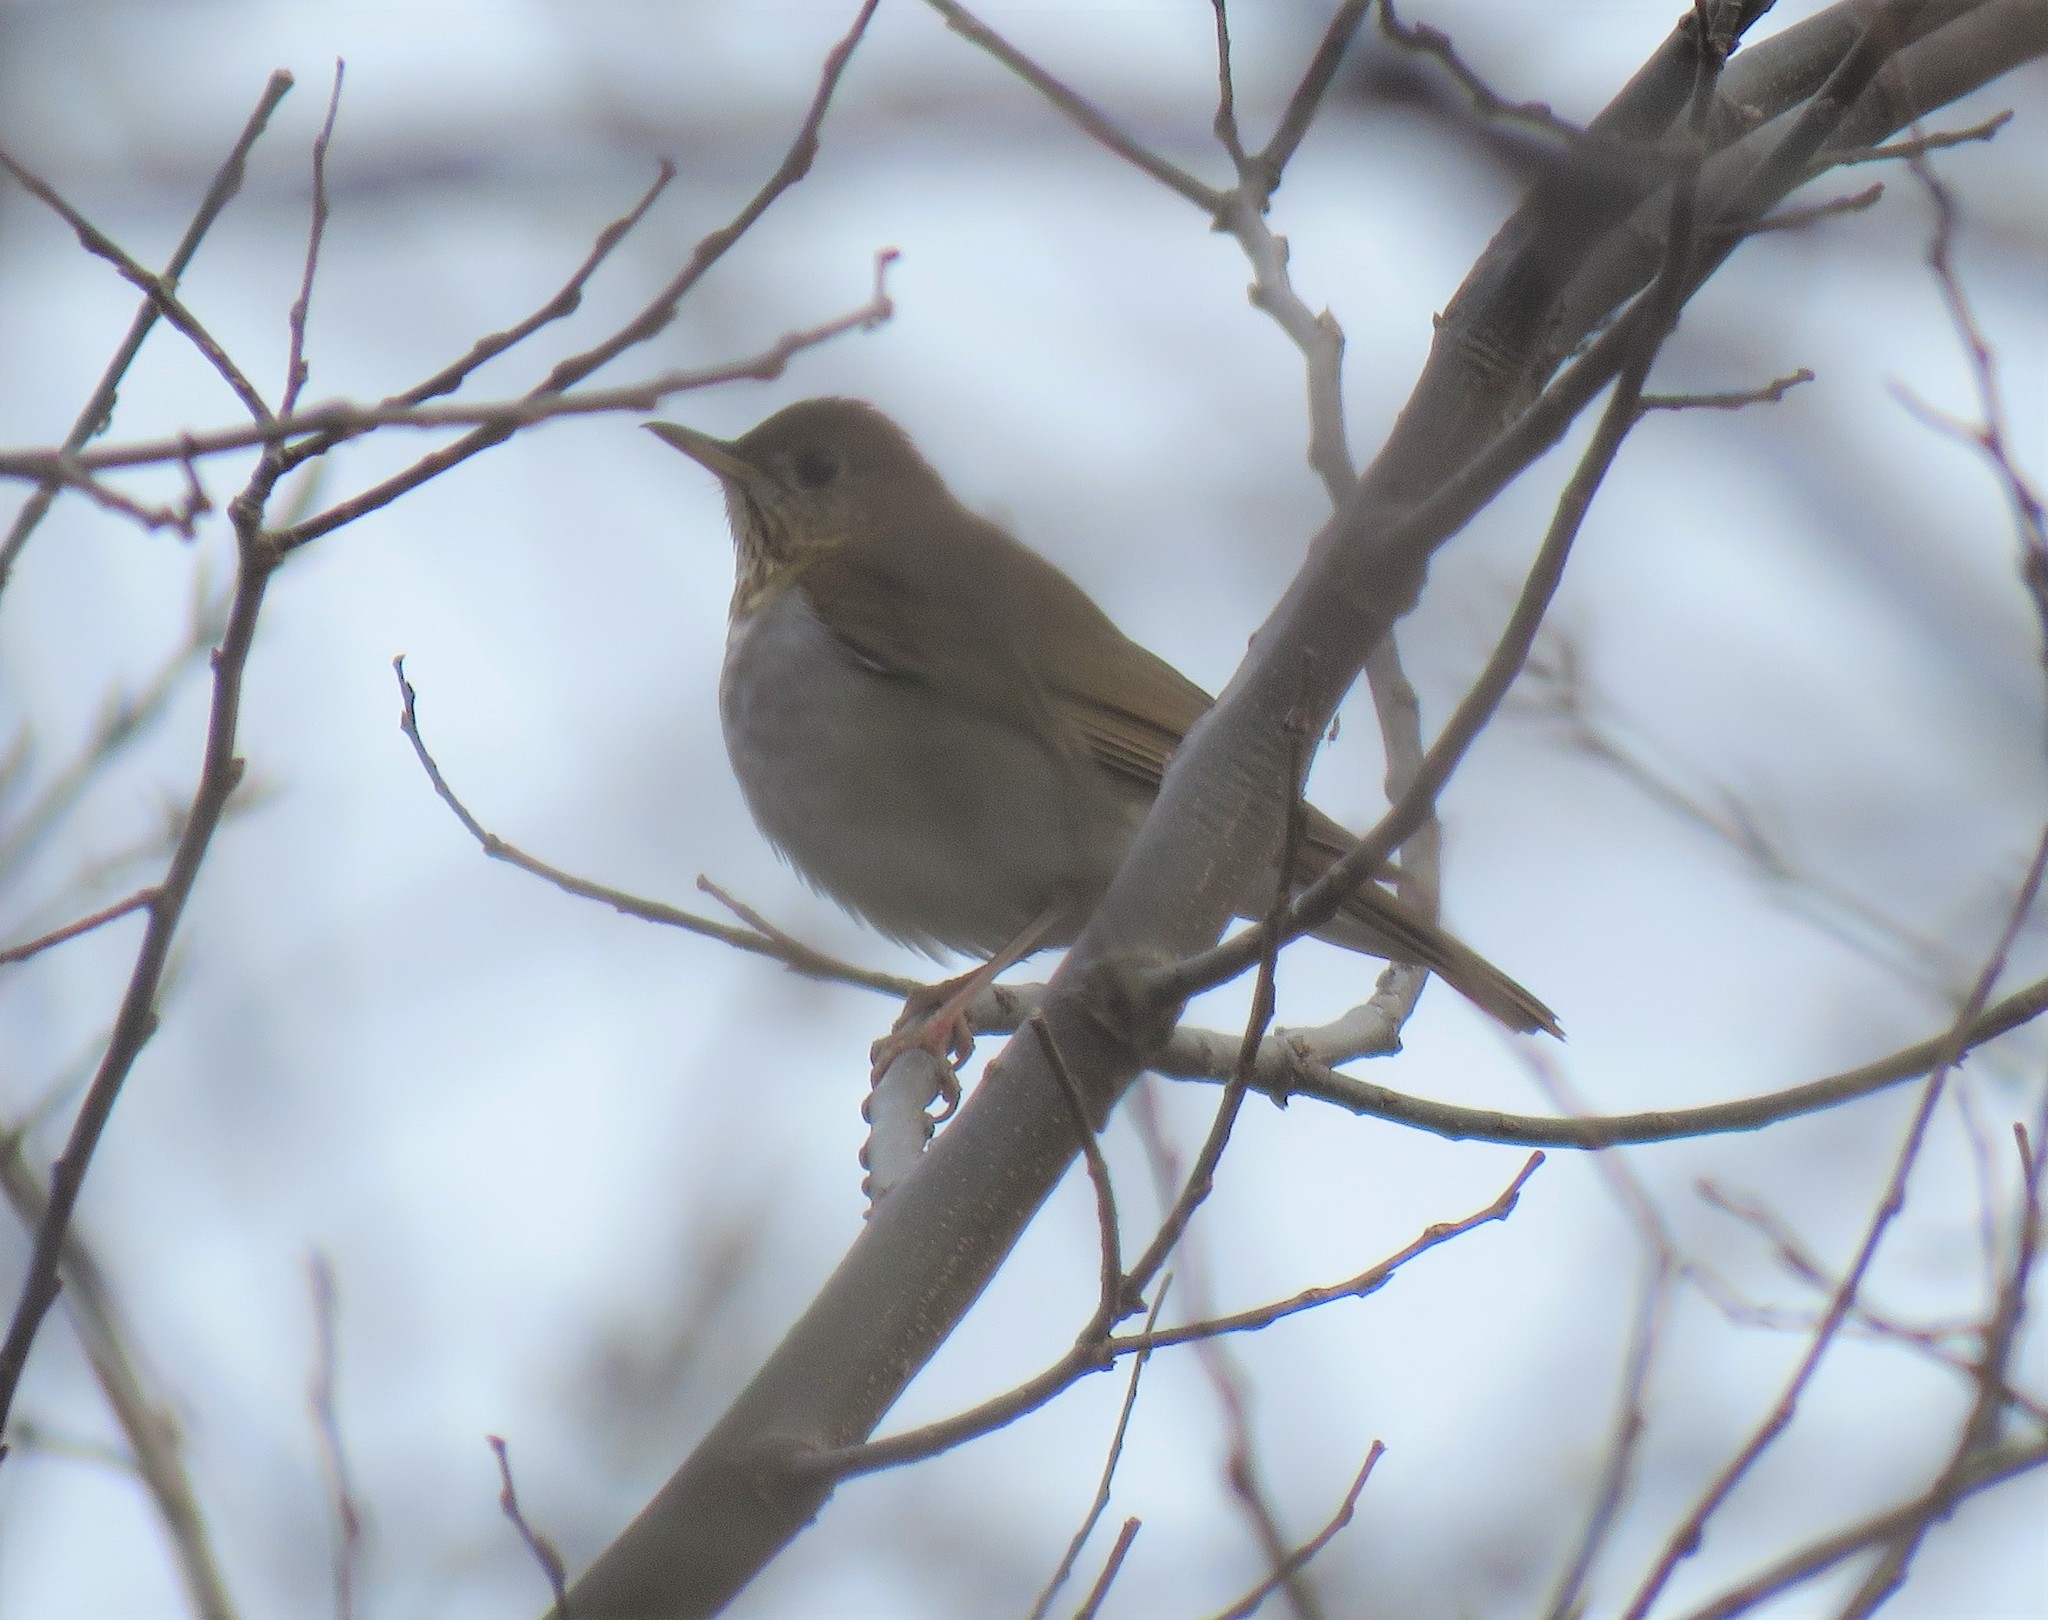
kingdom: Animalia
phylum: Chordata
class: Aves
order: Passeriformes
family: Turdidae
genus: Catharus
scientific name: Catharus fuscescens
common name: Veery
